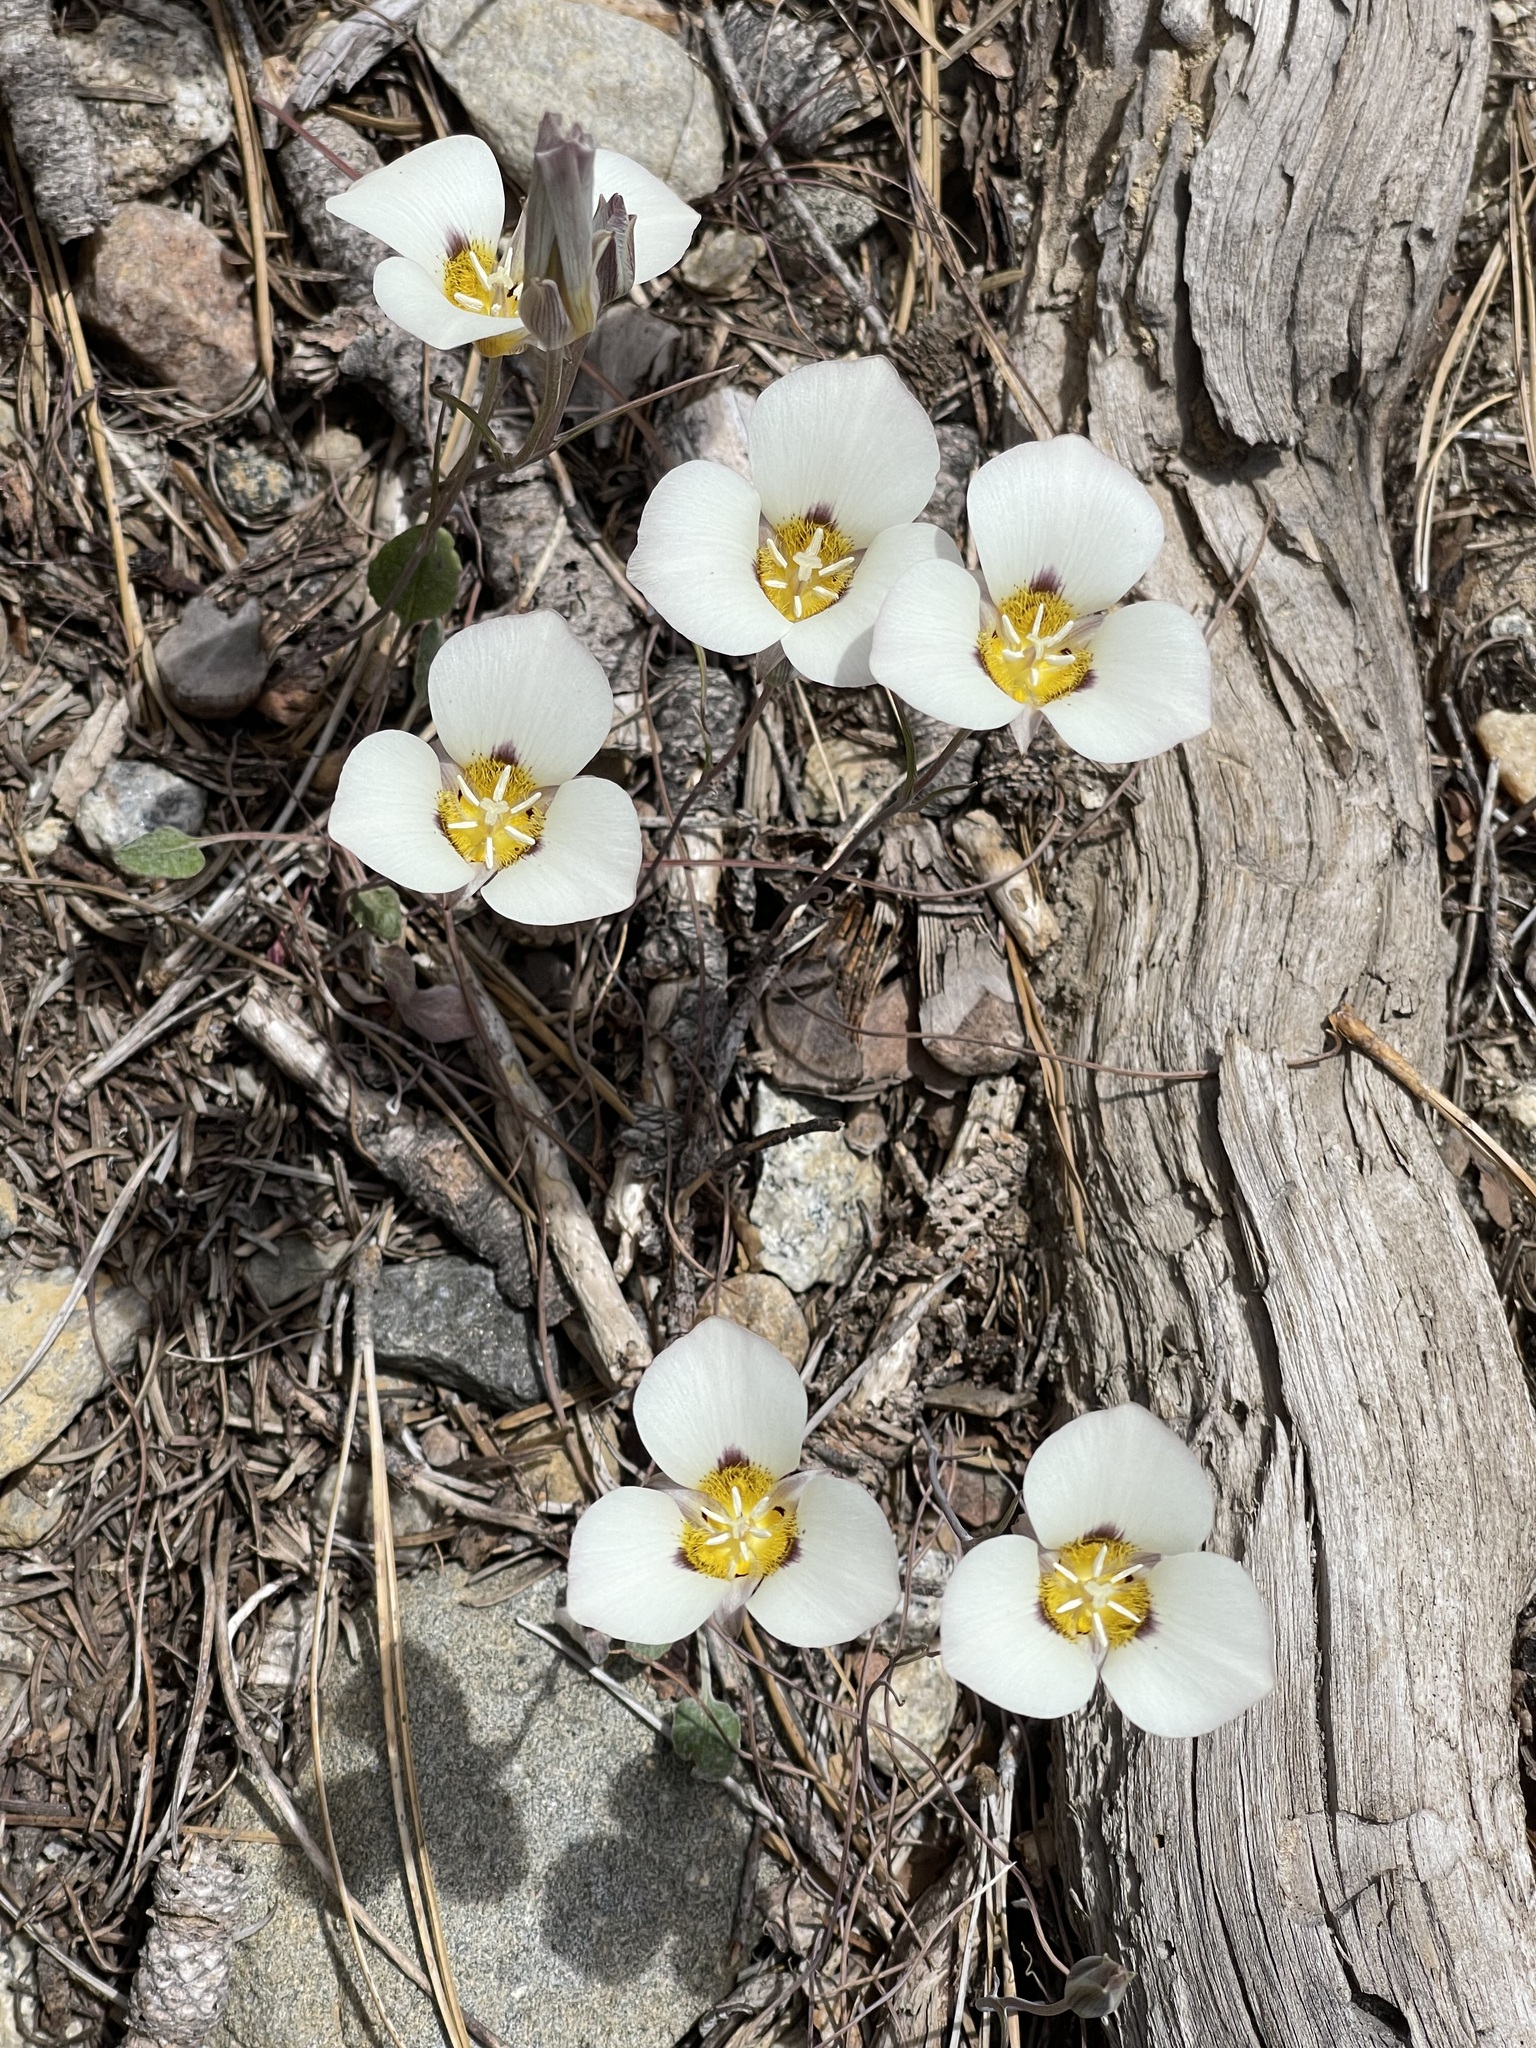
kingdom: Plantae
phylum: Tracheophyta
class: Liliopsida
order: Liliales
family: Liliaceae
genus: Calochortus
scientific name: Calochortus leichtlinii
